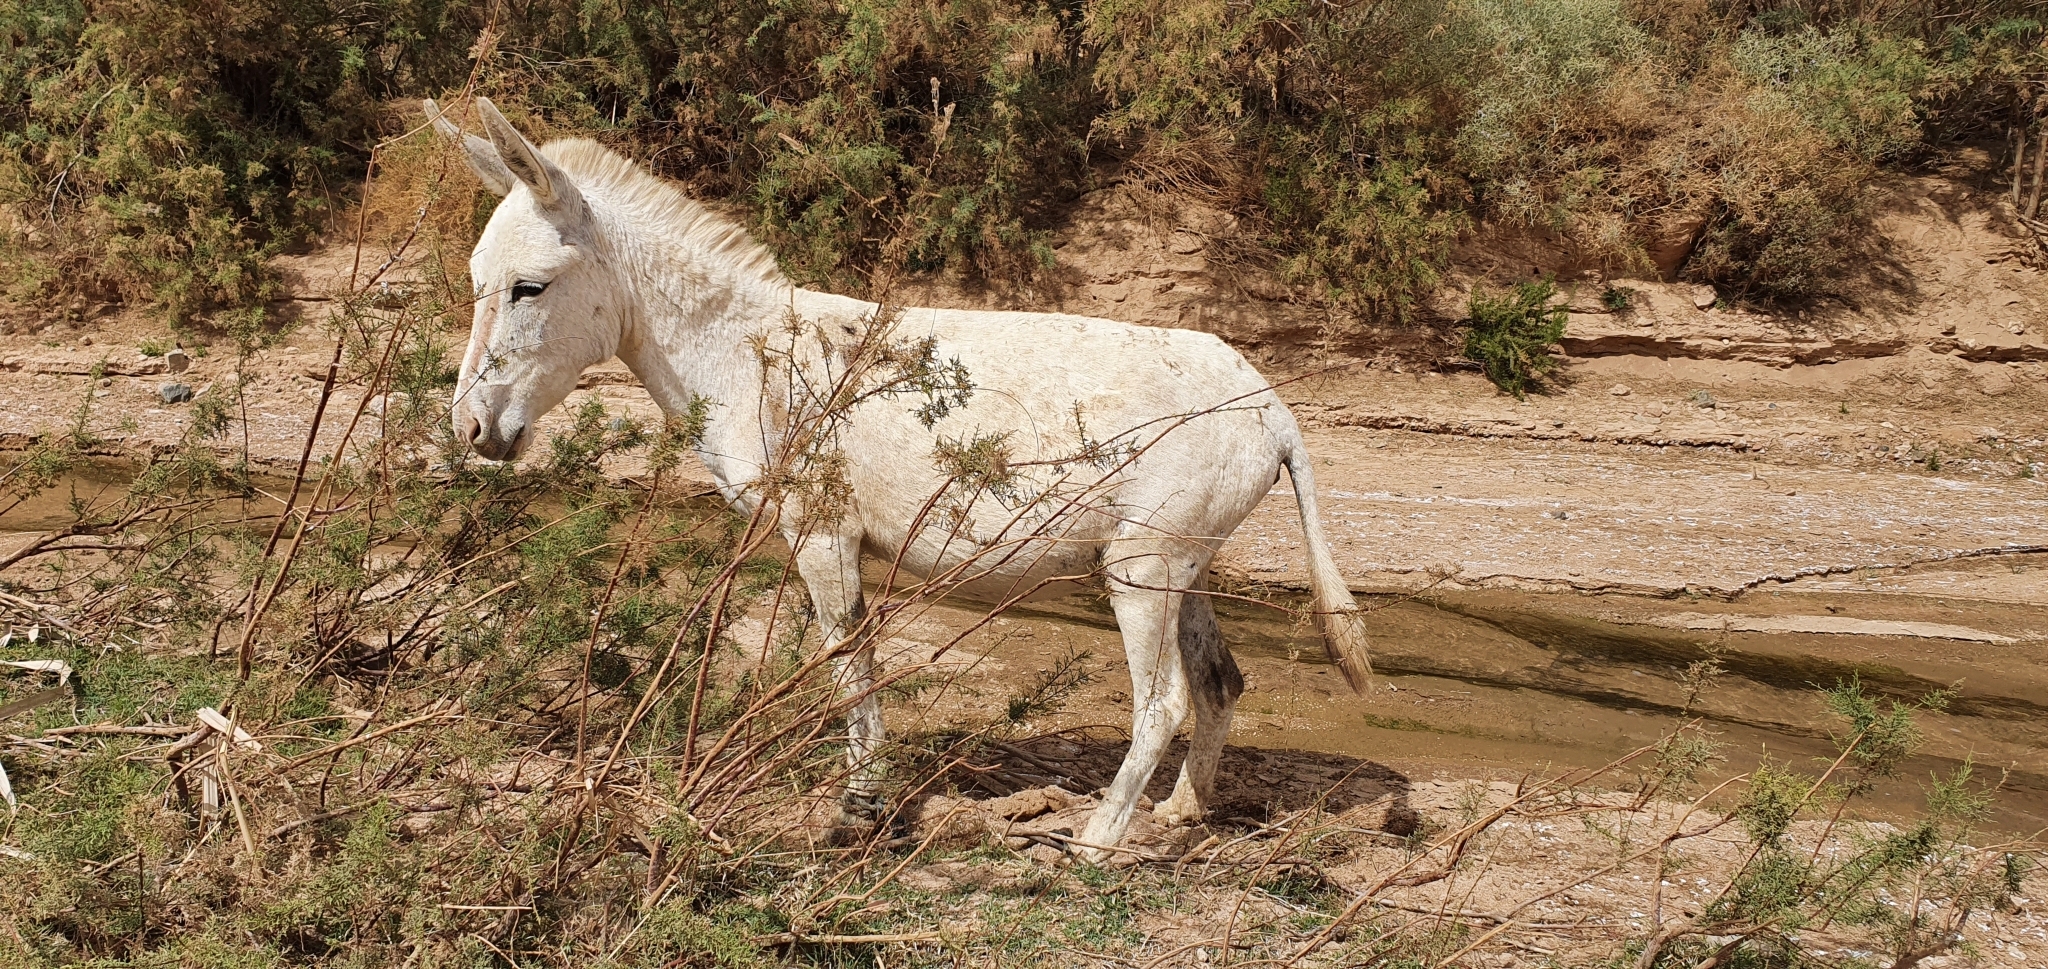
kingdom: Animalia
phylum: Chordata
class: Mammalia
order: Perissodactyla
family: Equidae
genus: Equus
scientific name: Equus asinus
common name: Ass
